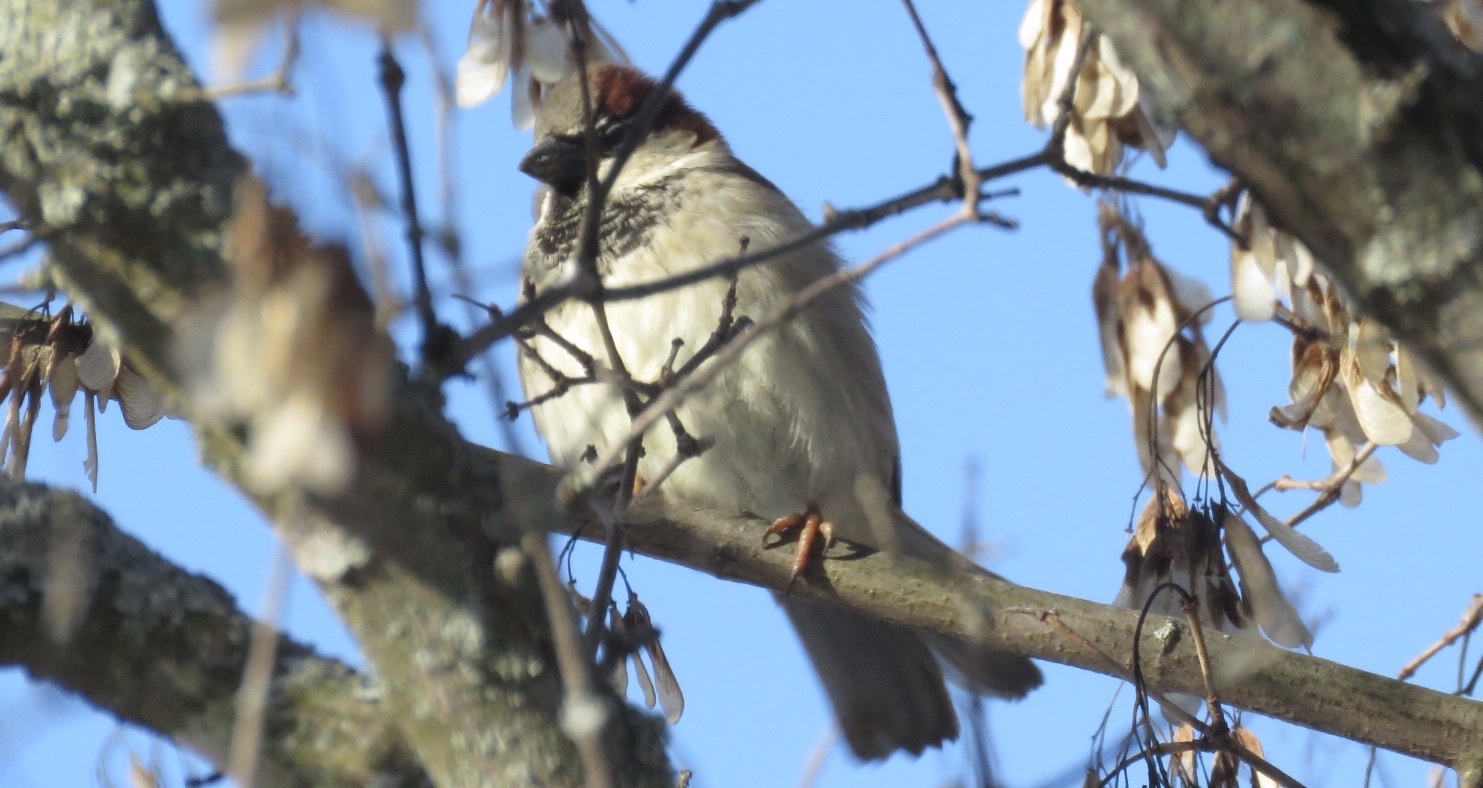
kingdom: Animalia
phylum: Chordata
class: Aves
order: Passeriformes
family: Passeridae
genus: Passer
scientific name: Passer domesticus
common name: House sparrow
